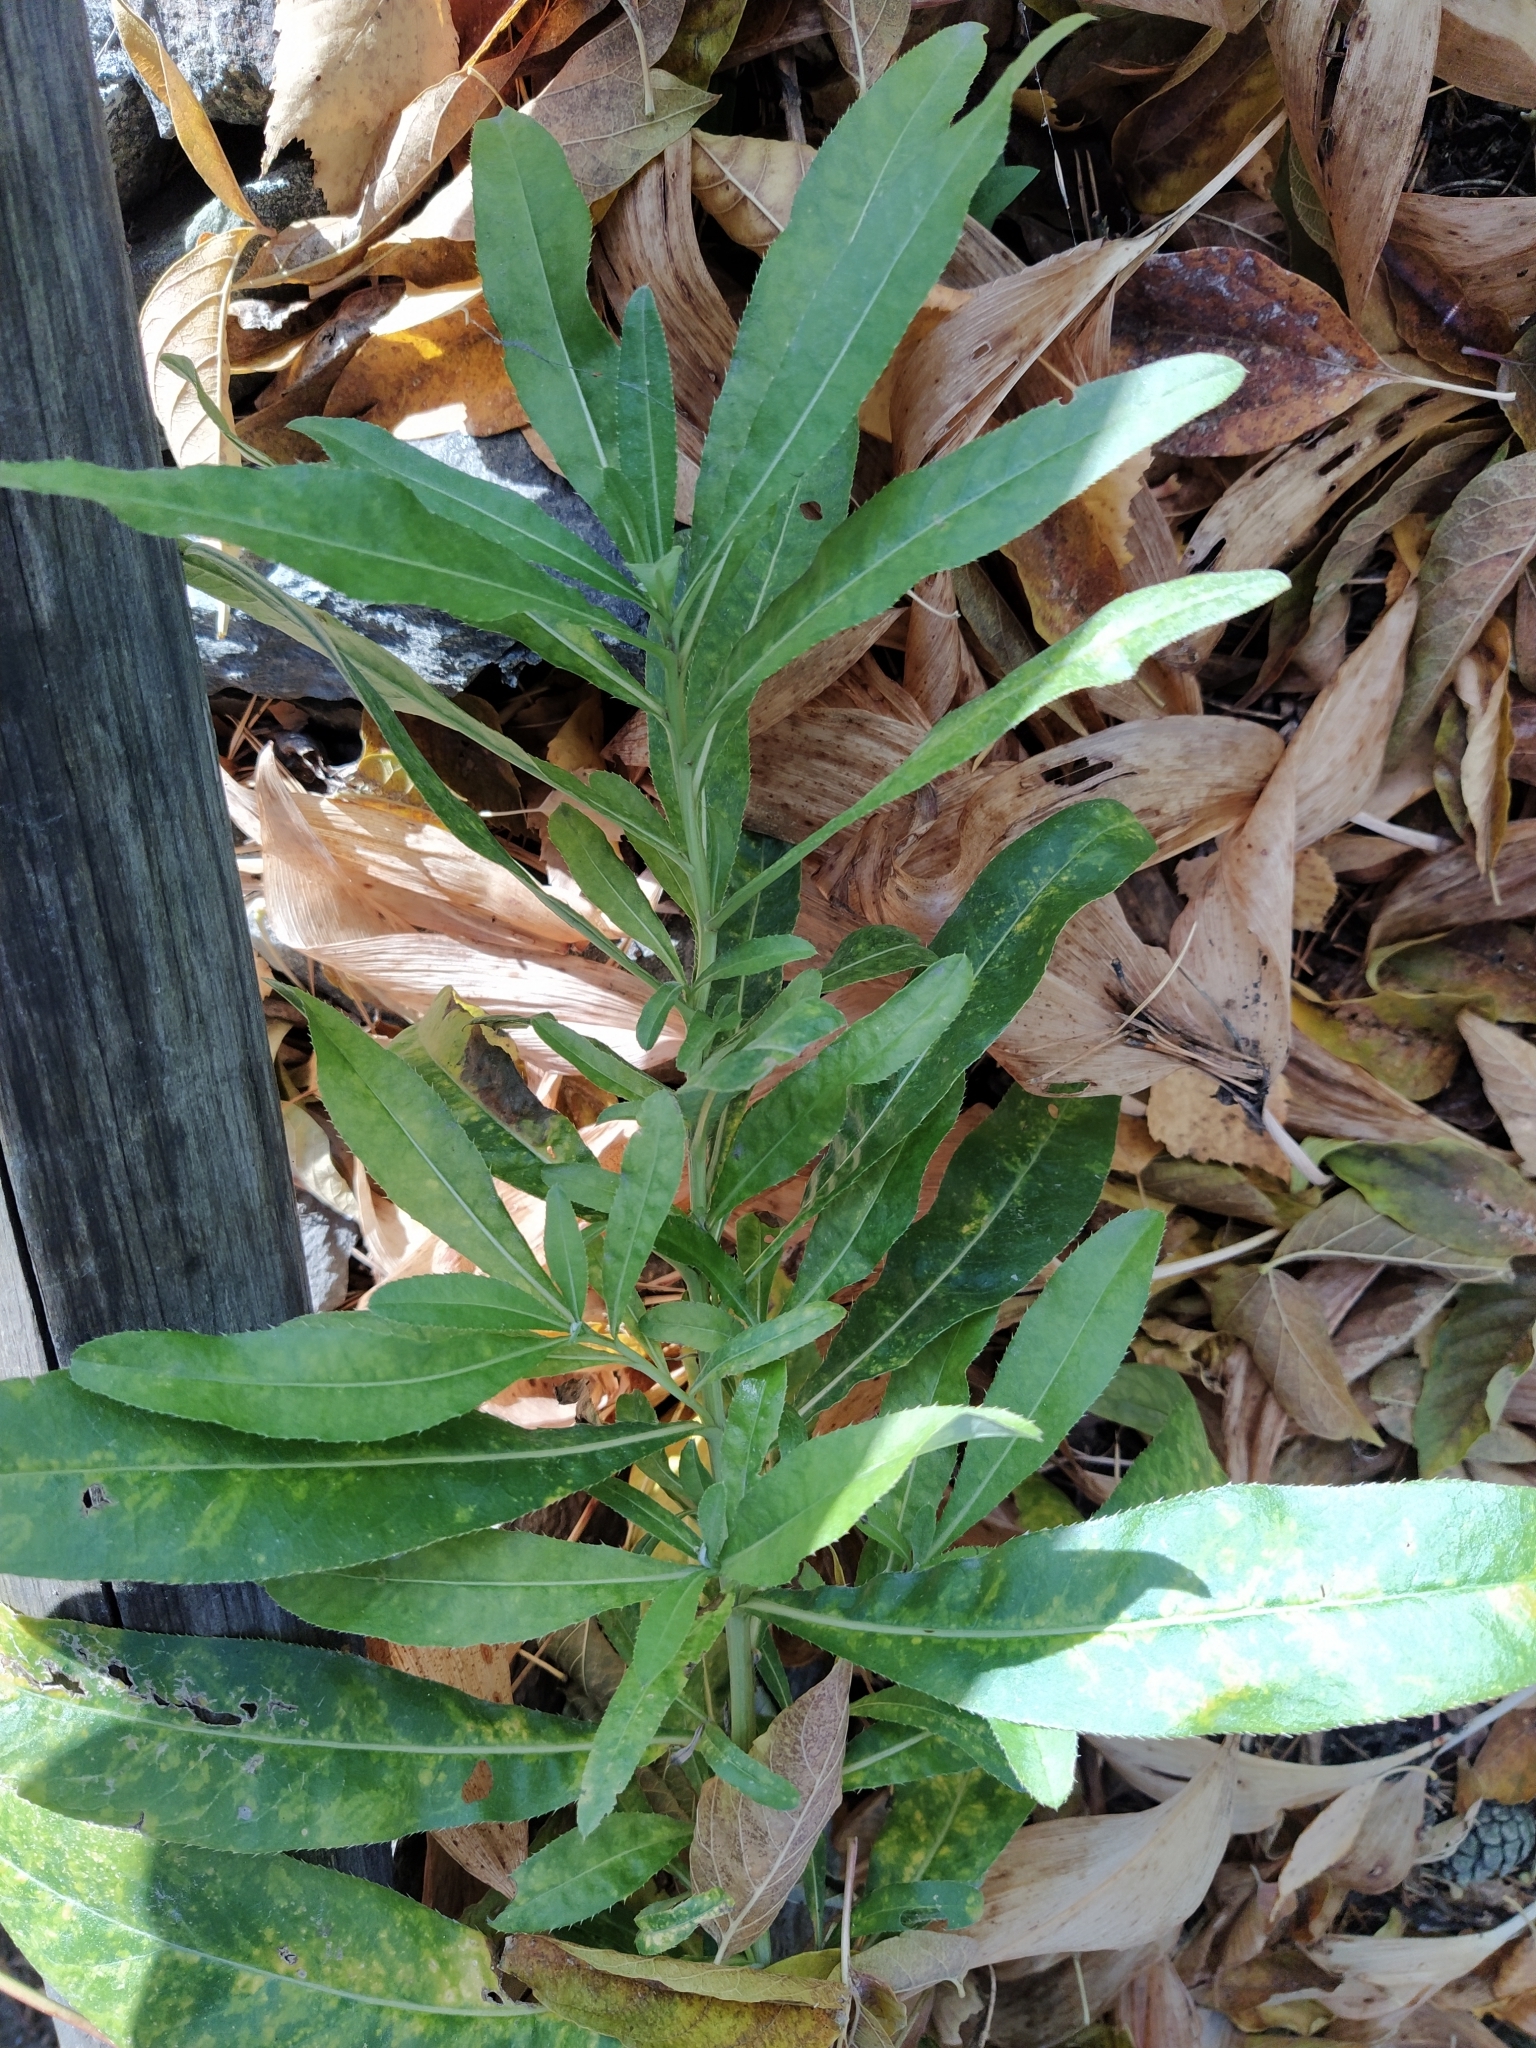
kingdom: Plantae
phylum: Tracheophyta
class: Magnoliopsida
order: Asterales
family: Asteraceae
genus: Cirsium
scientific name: Cirsium arvense
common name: Creeping thistle
